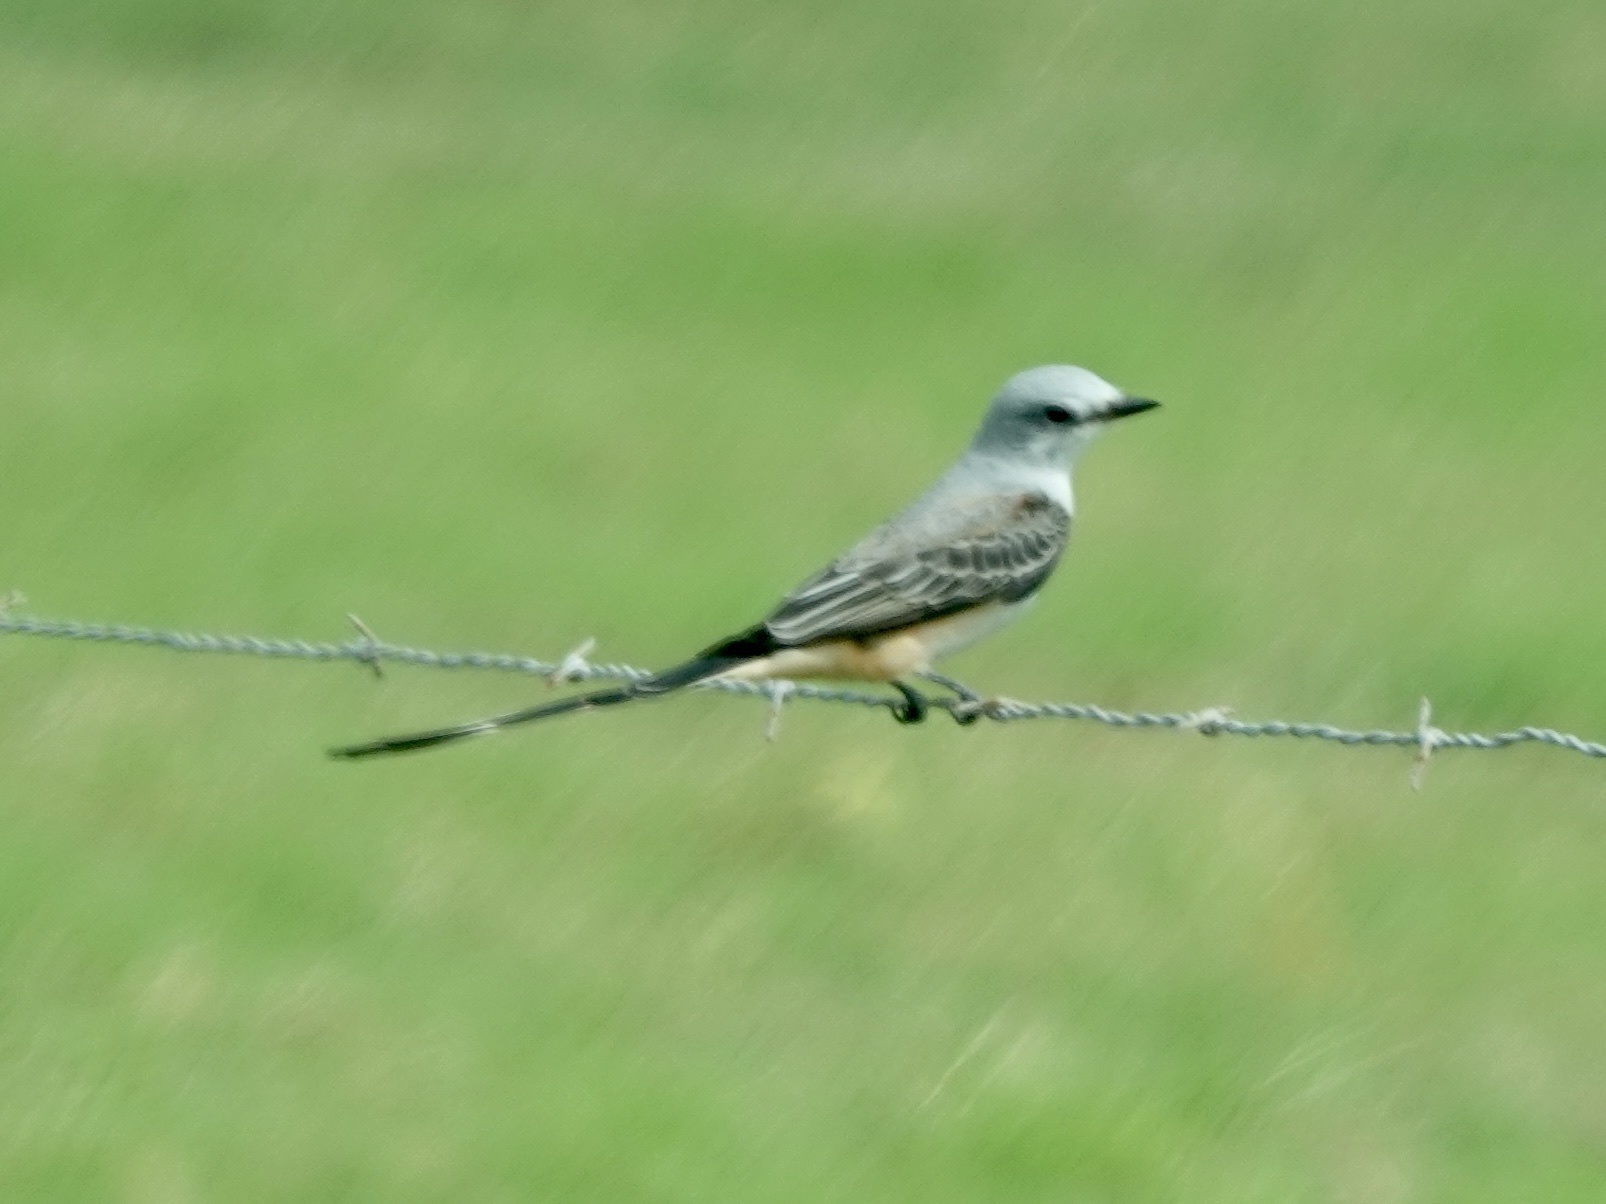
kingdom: Animalia
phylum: Chordata
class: Aves
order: Passeriformes
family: Tyrannidae
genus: Tyrannus
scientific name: Tyrannus forficatus
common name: Scissor-tailed flycatcher
